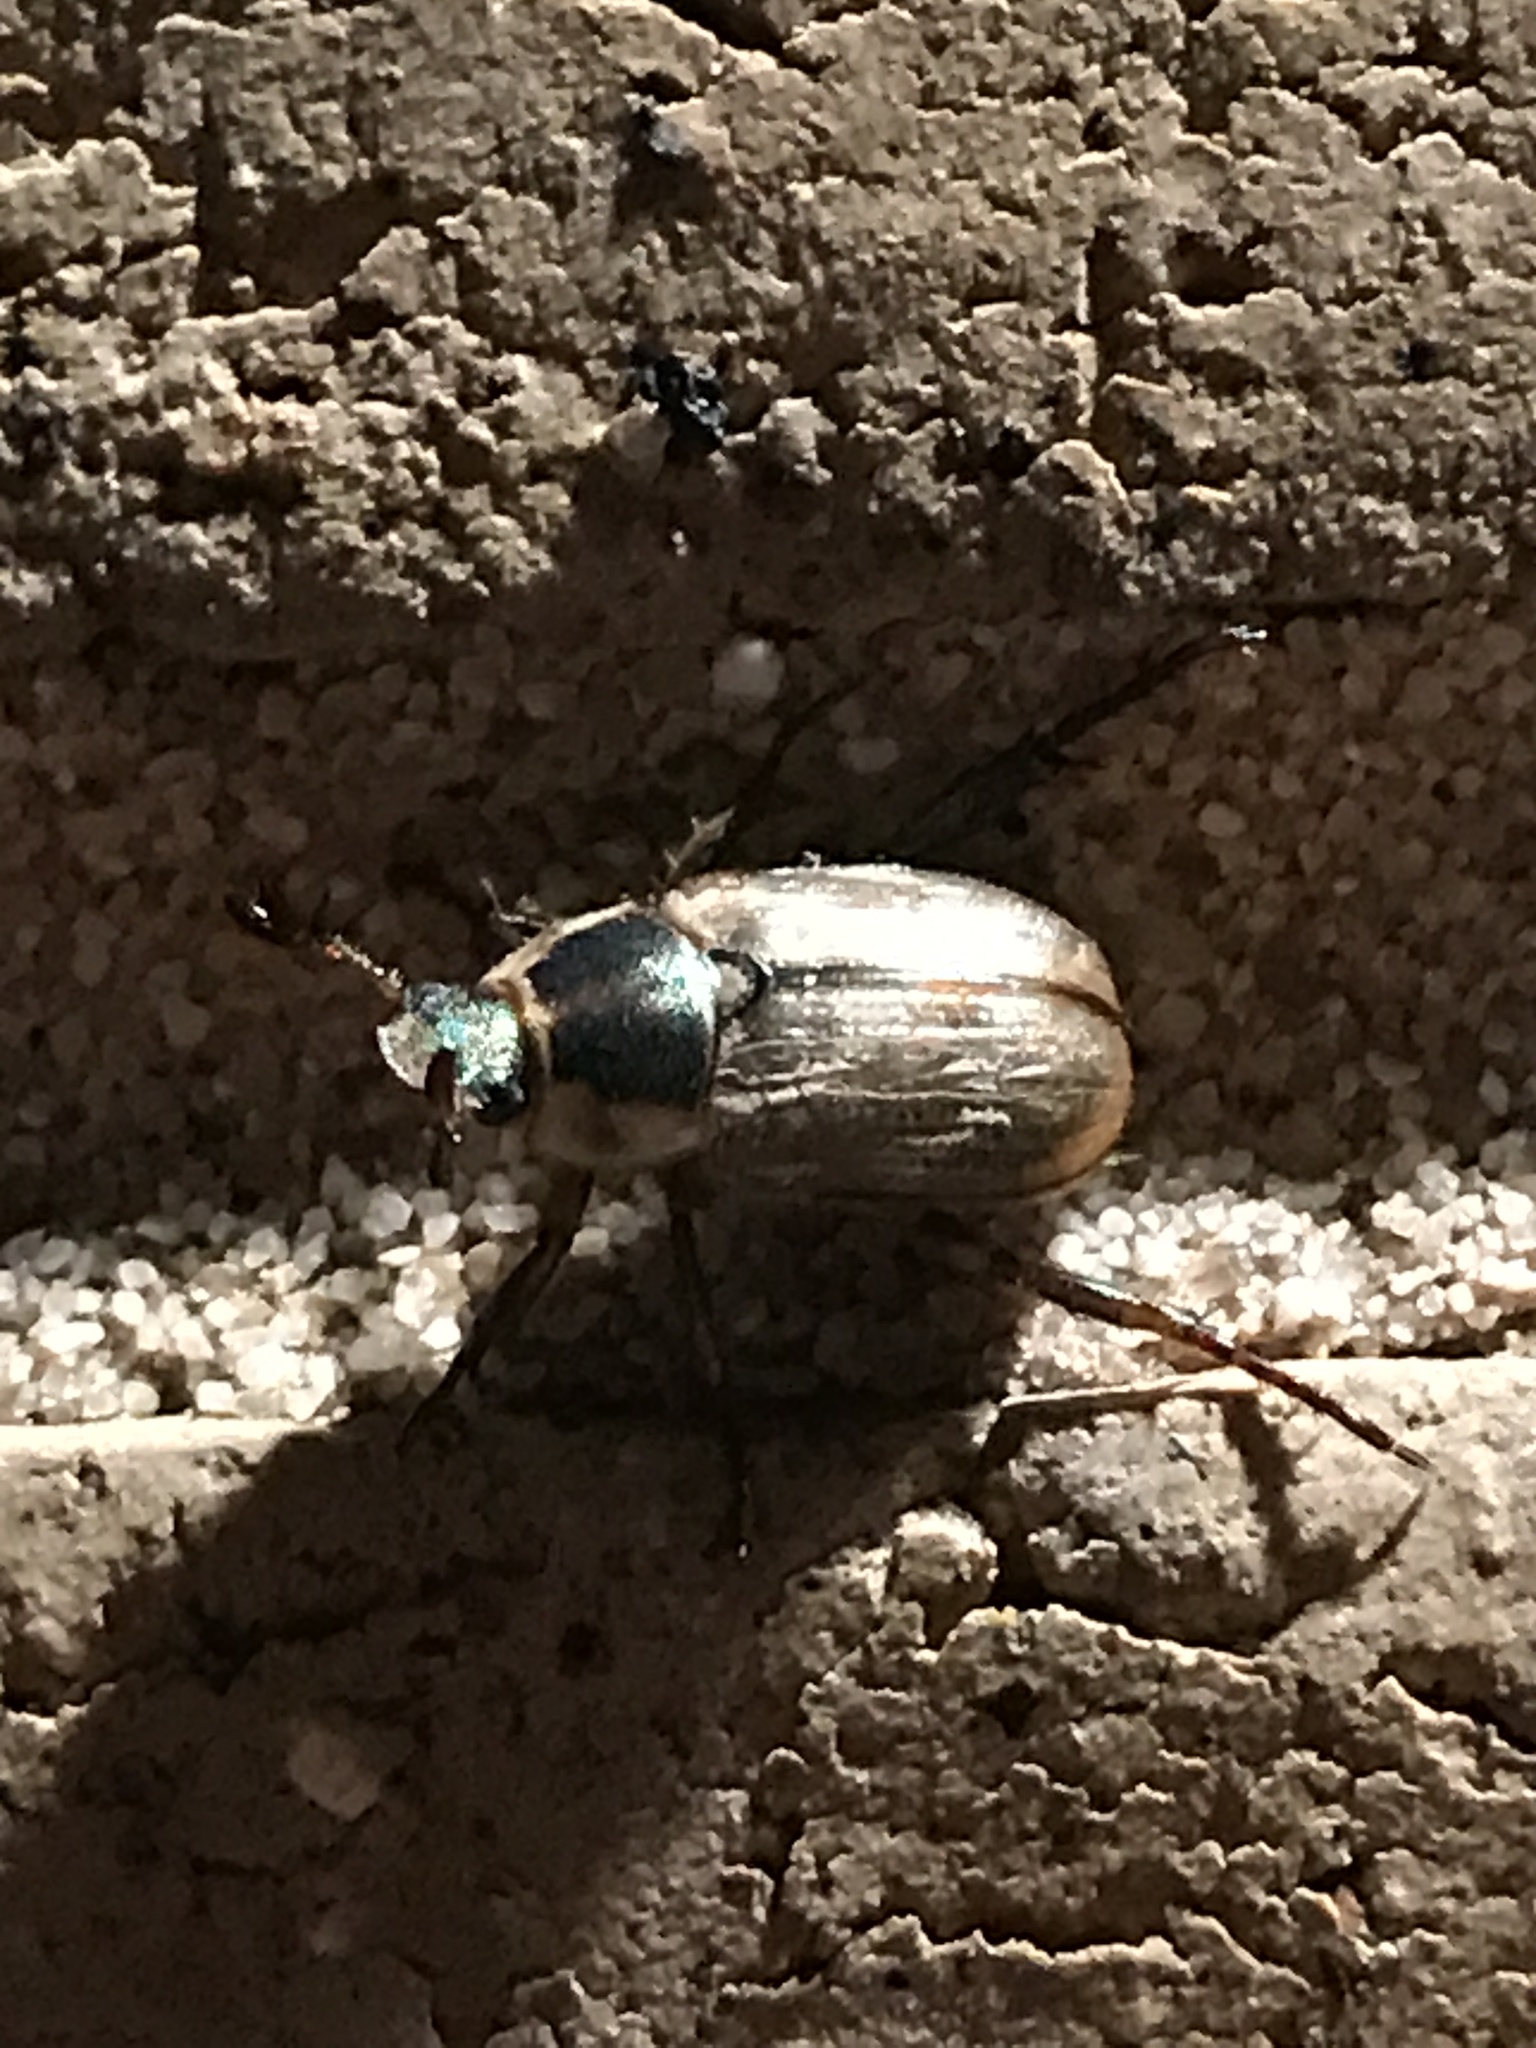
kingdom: Animalia
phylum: Arthropoda
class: Insecta
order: Coleoptera
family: Scarabaeidae
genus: Exomala
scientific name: Exomala orientalis
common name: Oriental beetle
